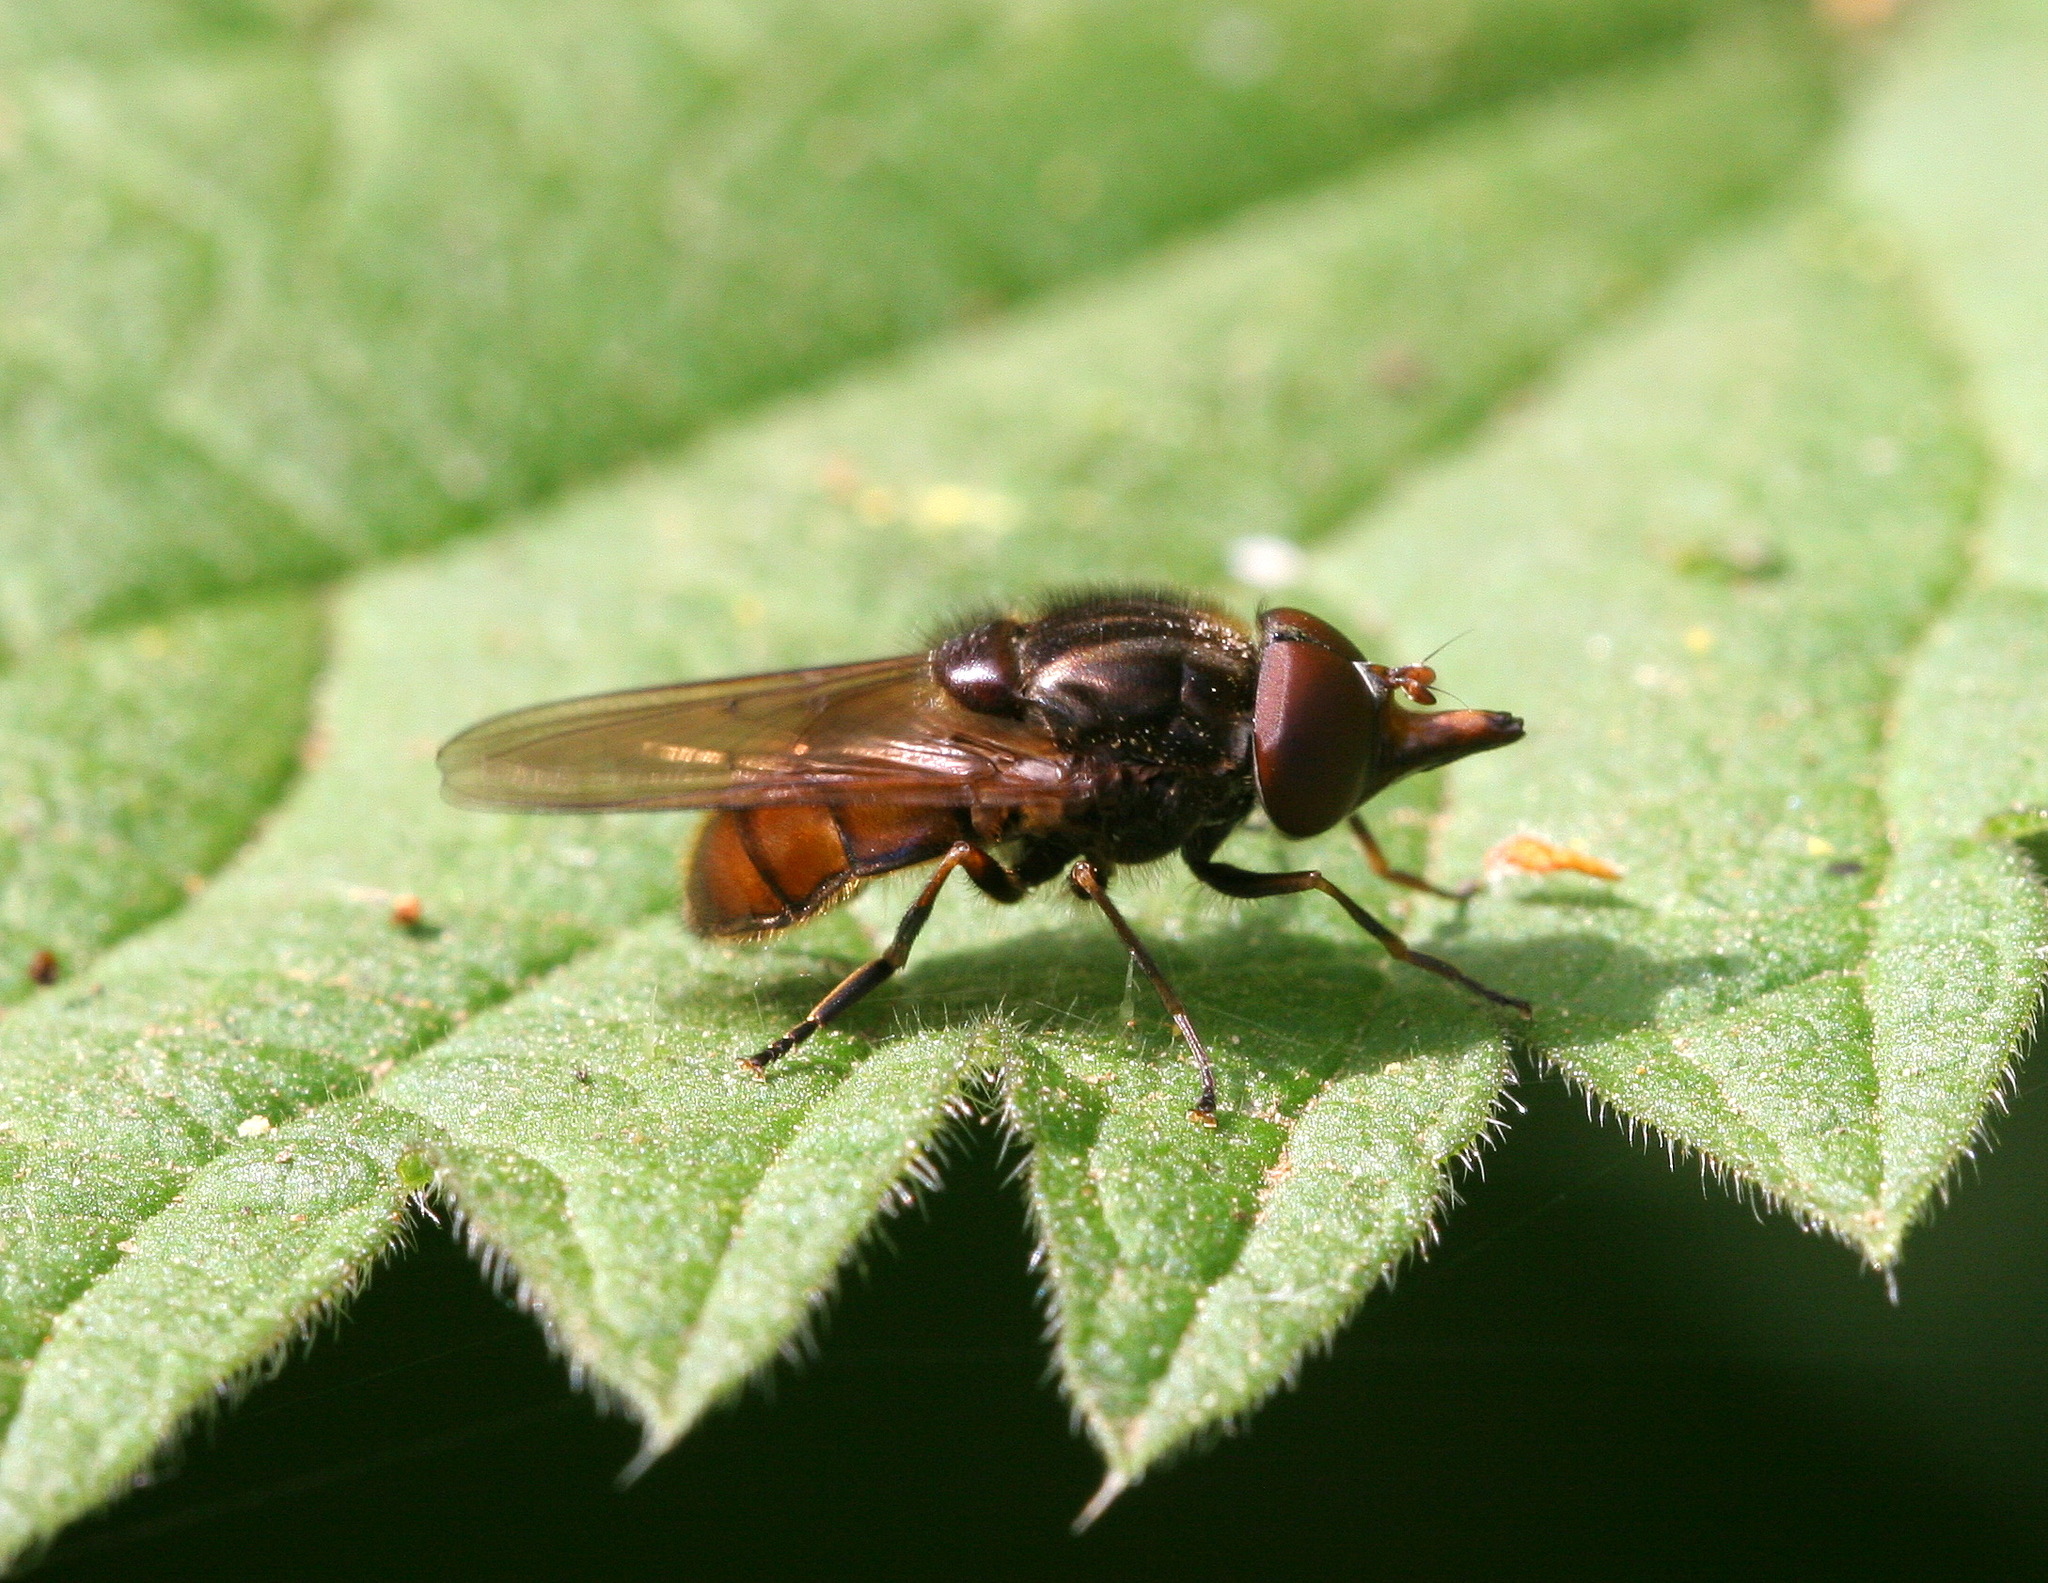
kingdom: Animalia
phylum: Arthropoda
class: Insecta
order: Diptera
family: Syrphidae
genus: Rhingia
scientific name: Rhingia campestris
